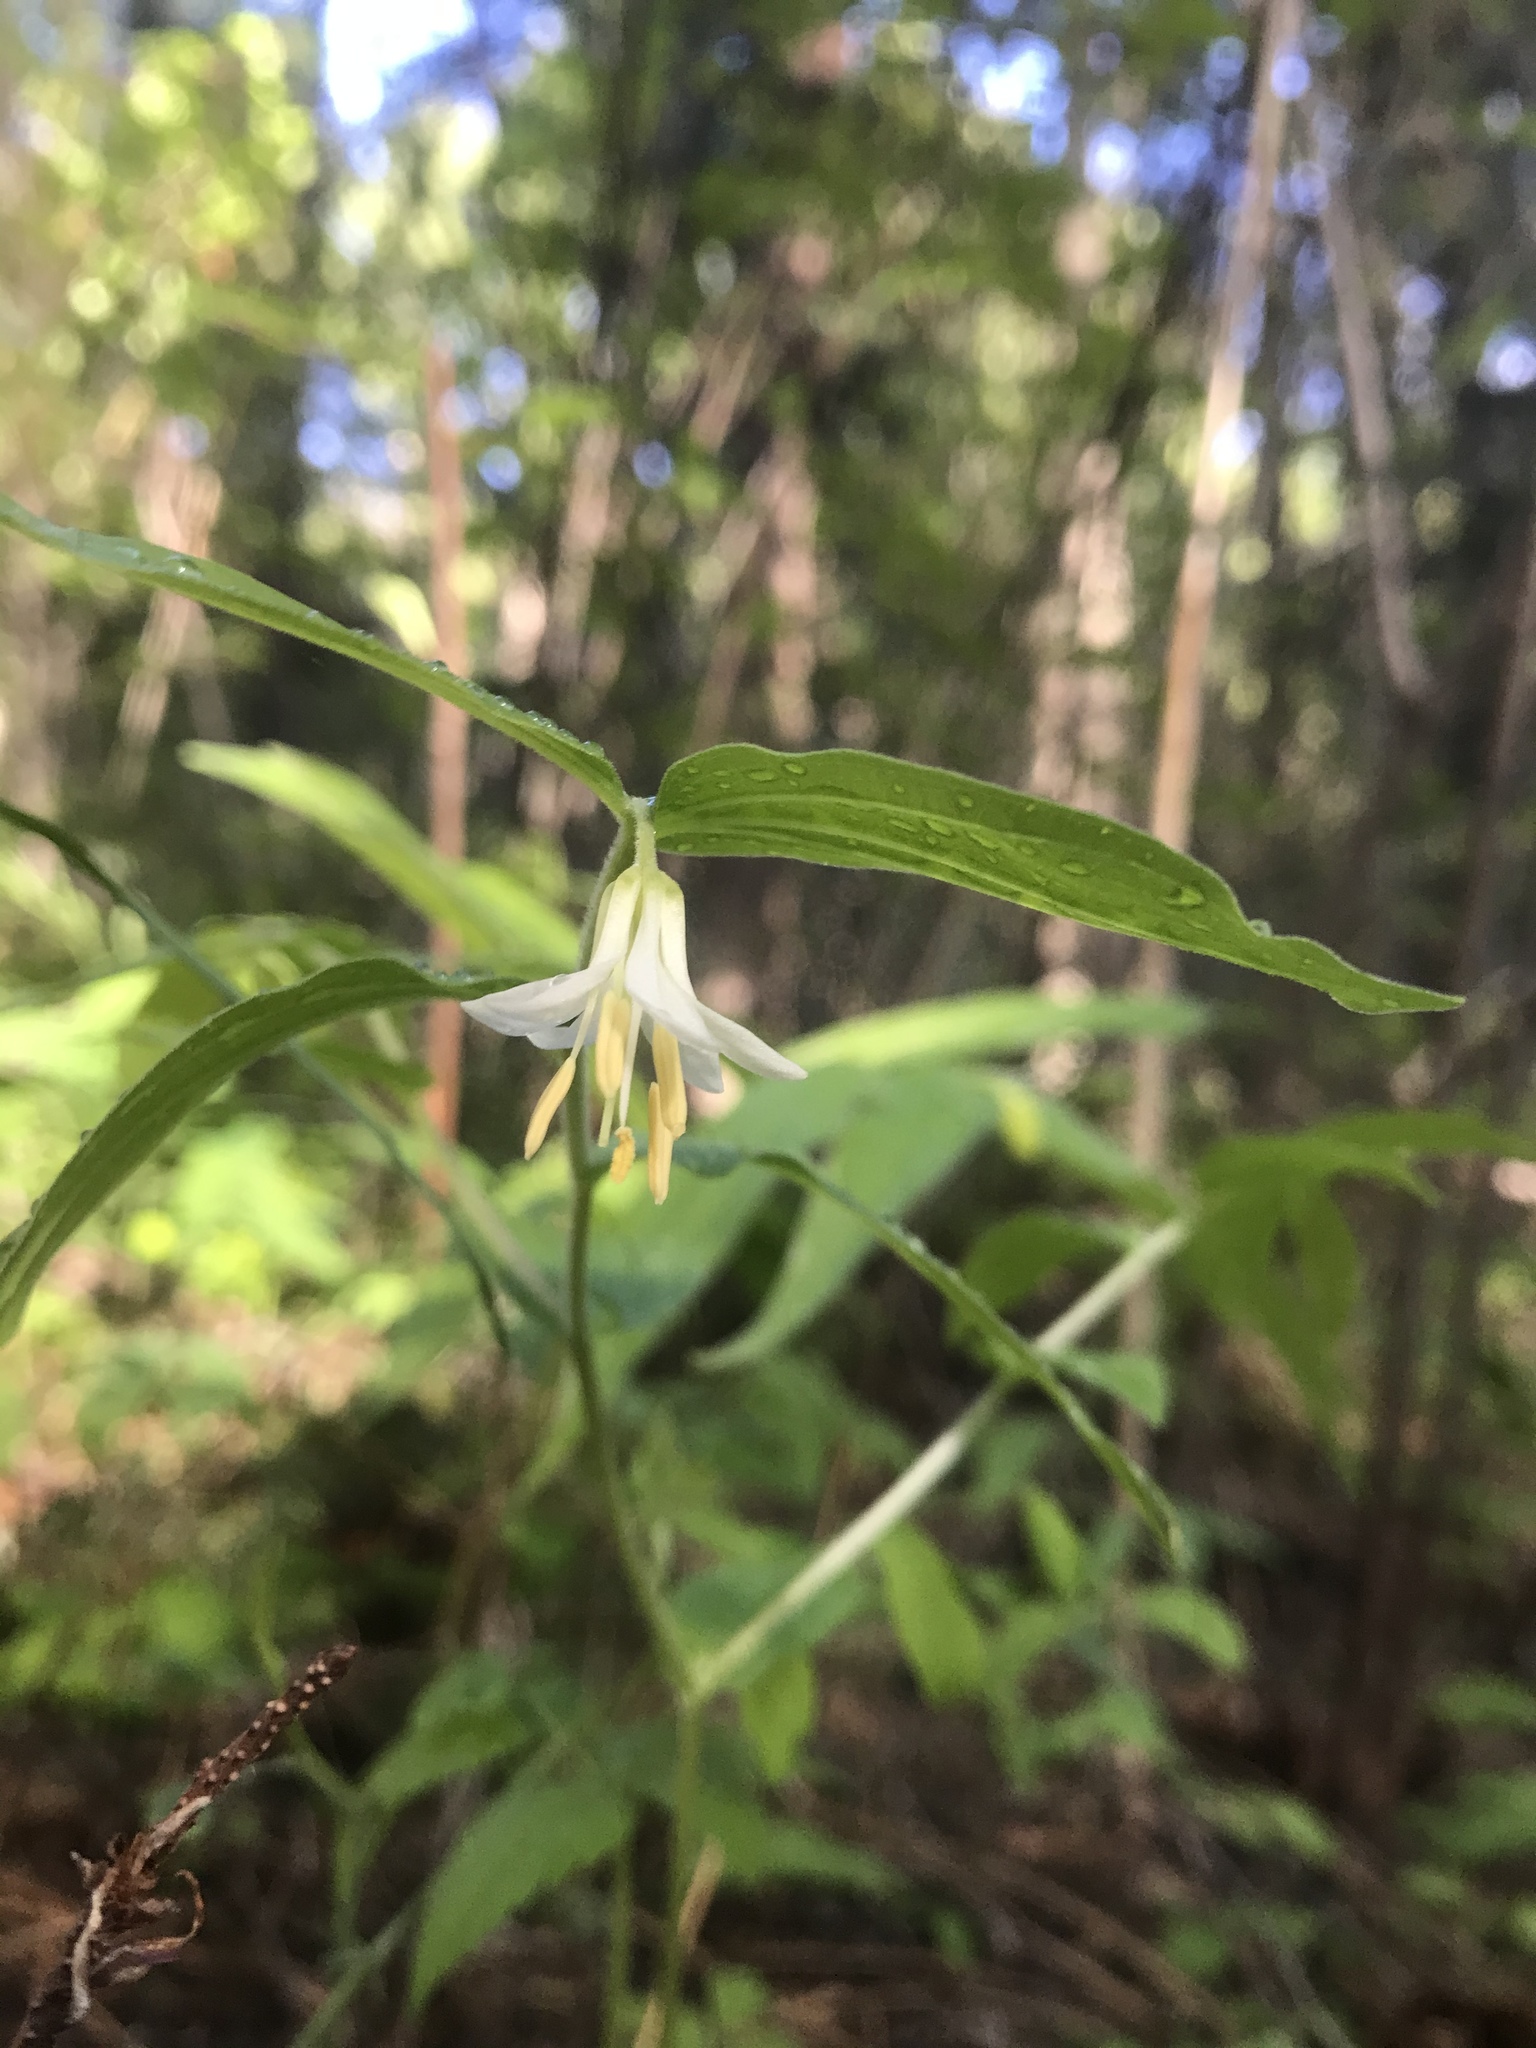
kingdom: Plantae
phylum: Tracheophyta
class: Liliopsida
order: Liliales
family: Liliaceae
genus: Prosartes
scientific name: Prosartes hookeri
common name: Fairy-bells
